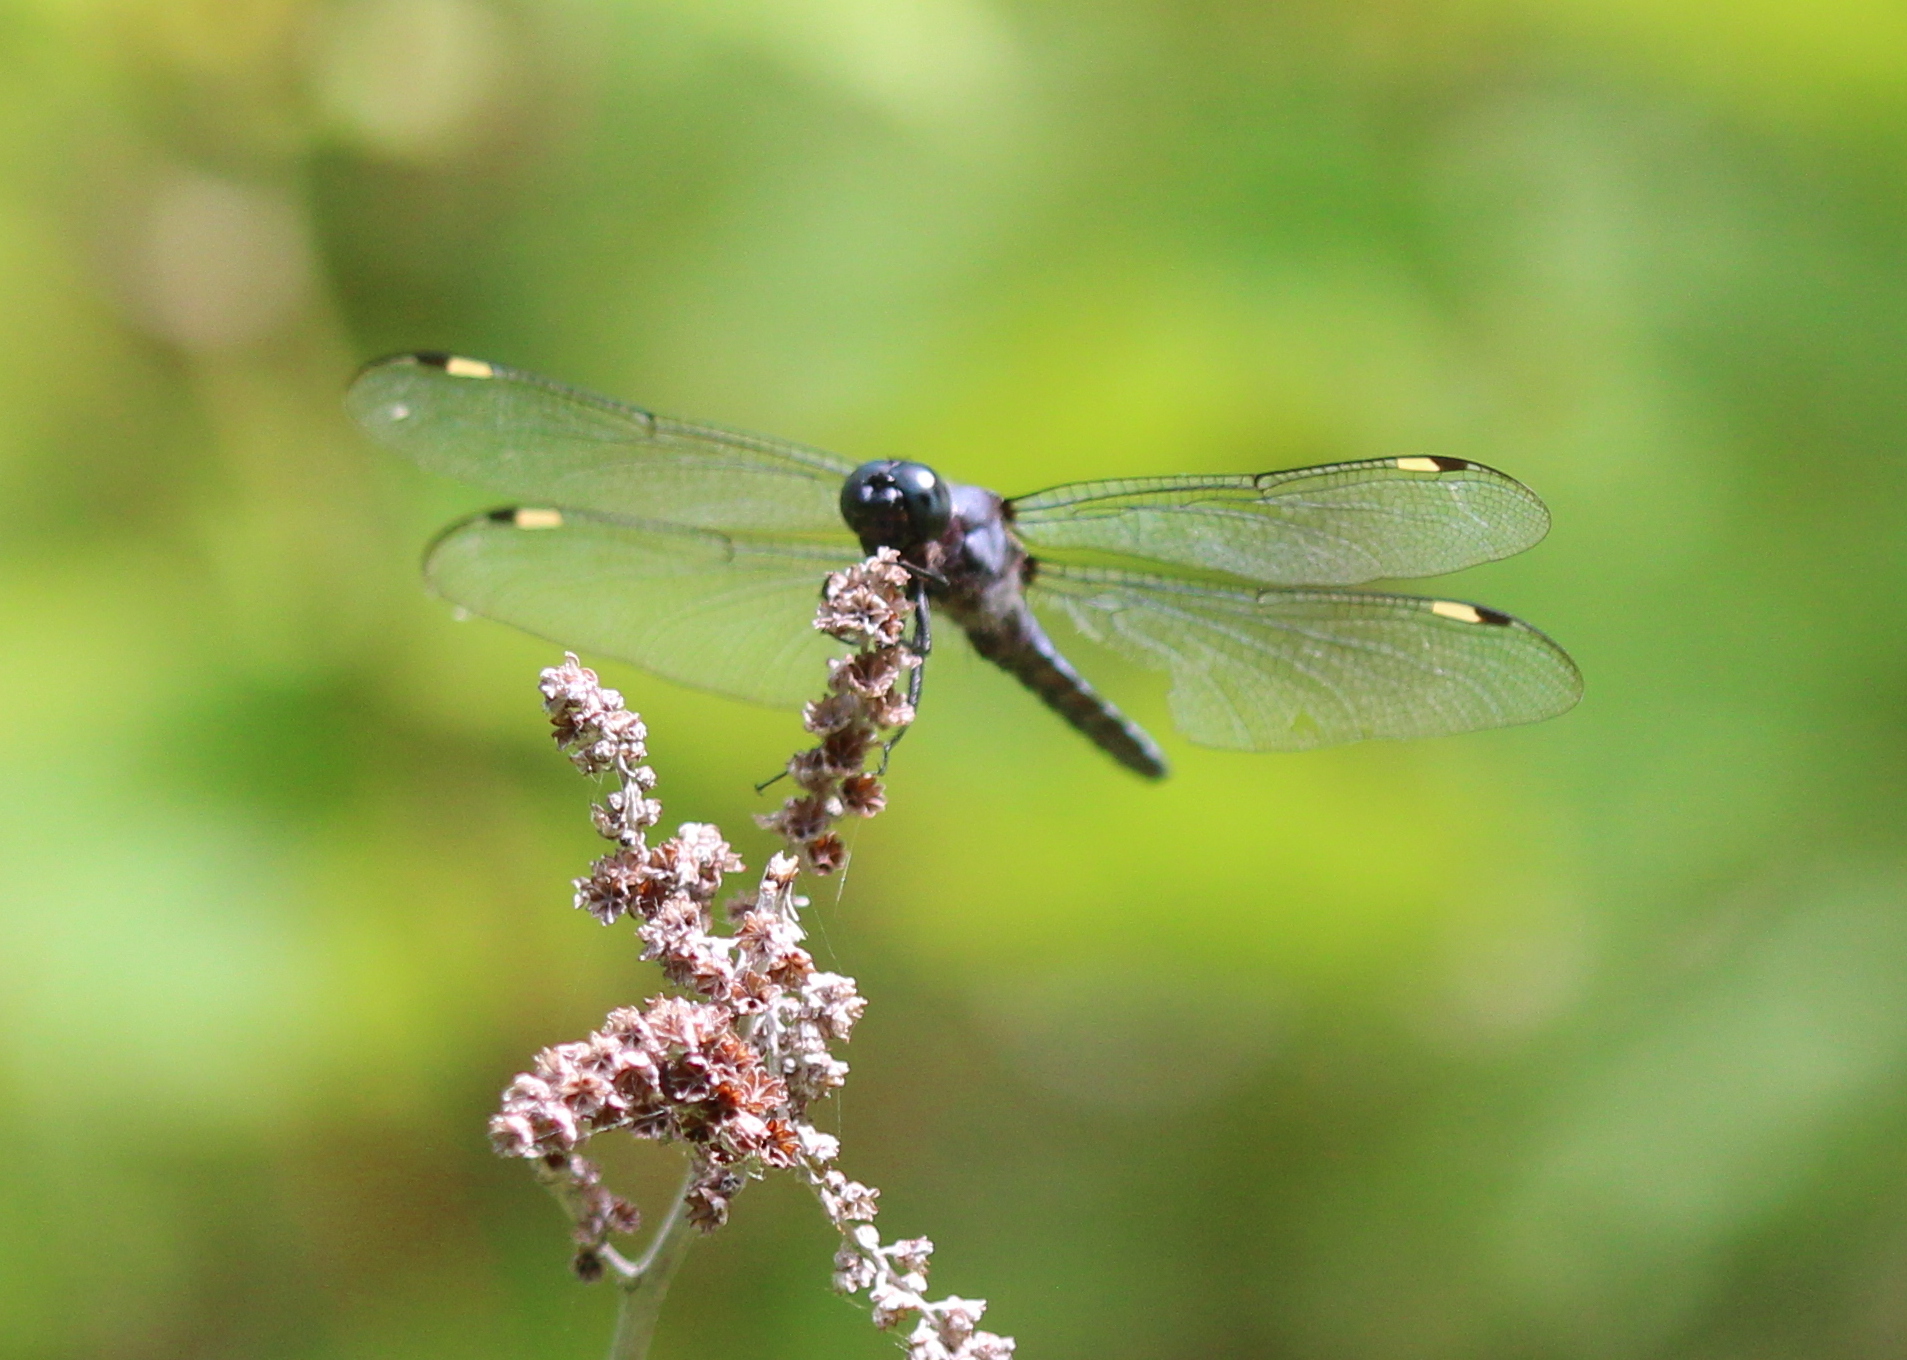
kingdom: Animalia
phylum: Arthropoda
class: Insecta
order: Odonata
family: Libellulidae
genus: Libellula
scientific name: Libellula cyanea
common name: Spangled skimmer
